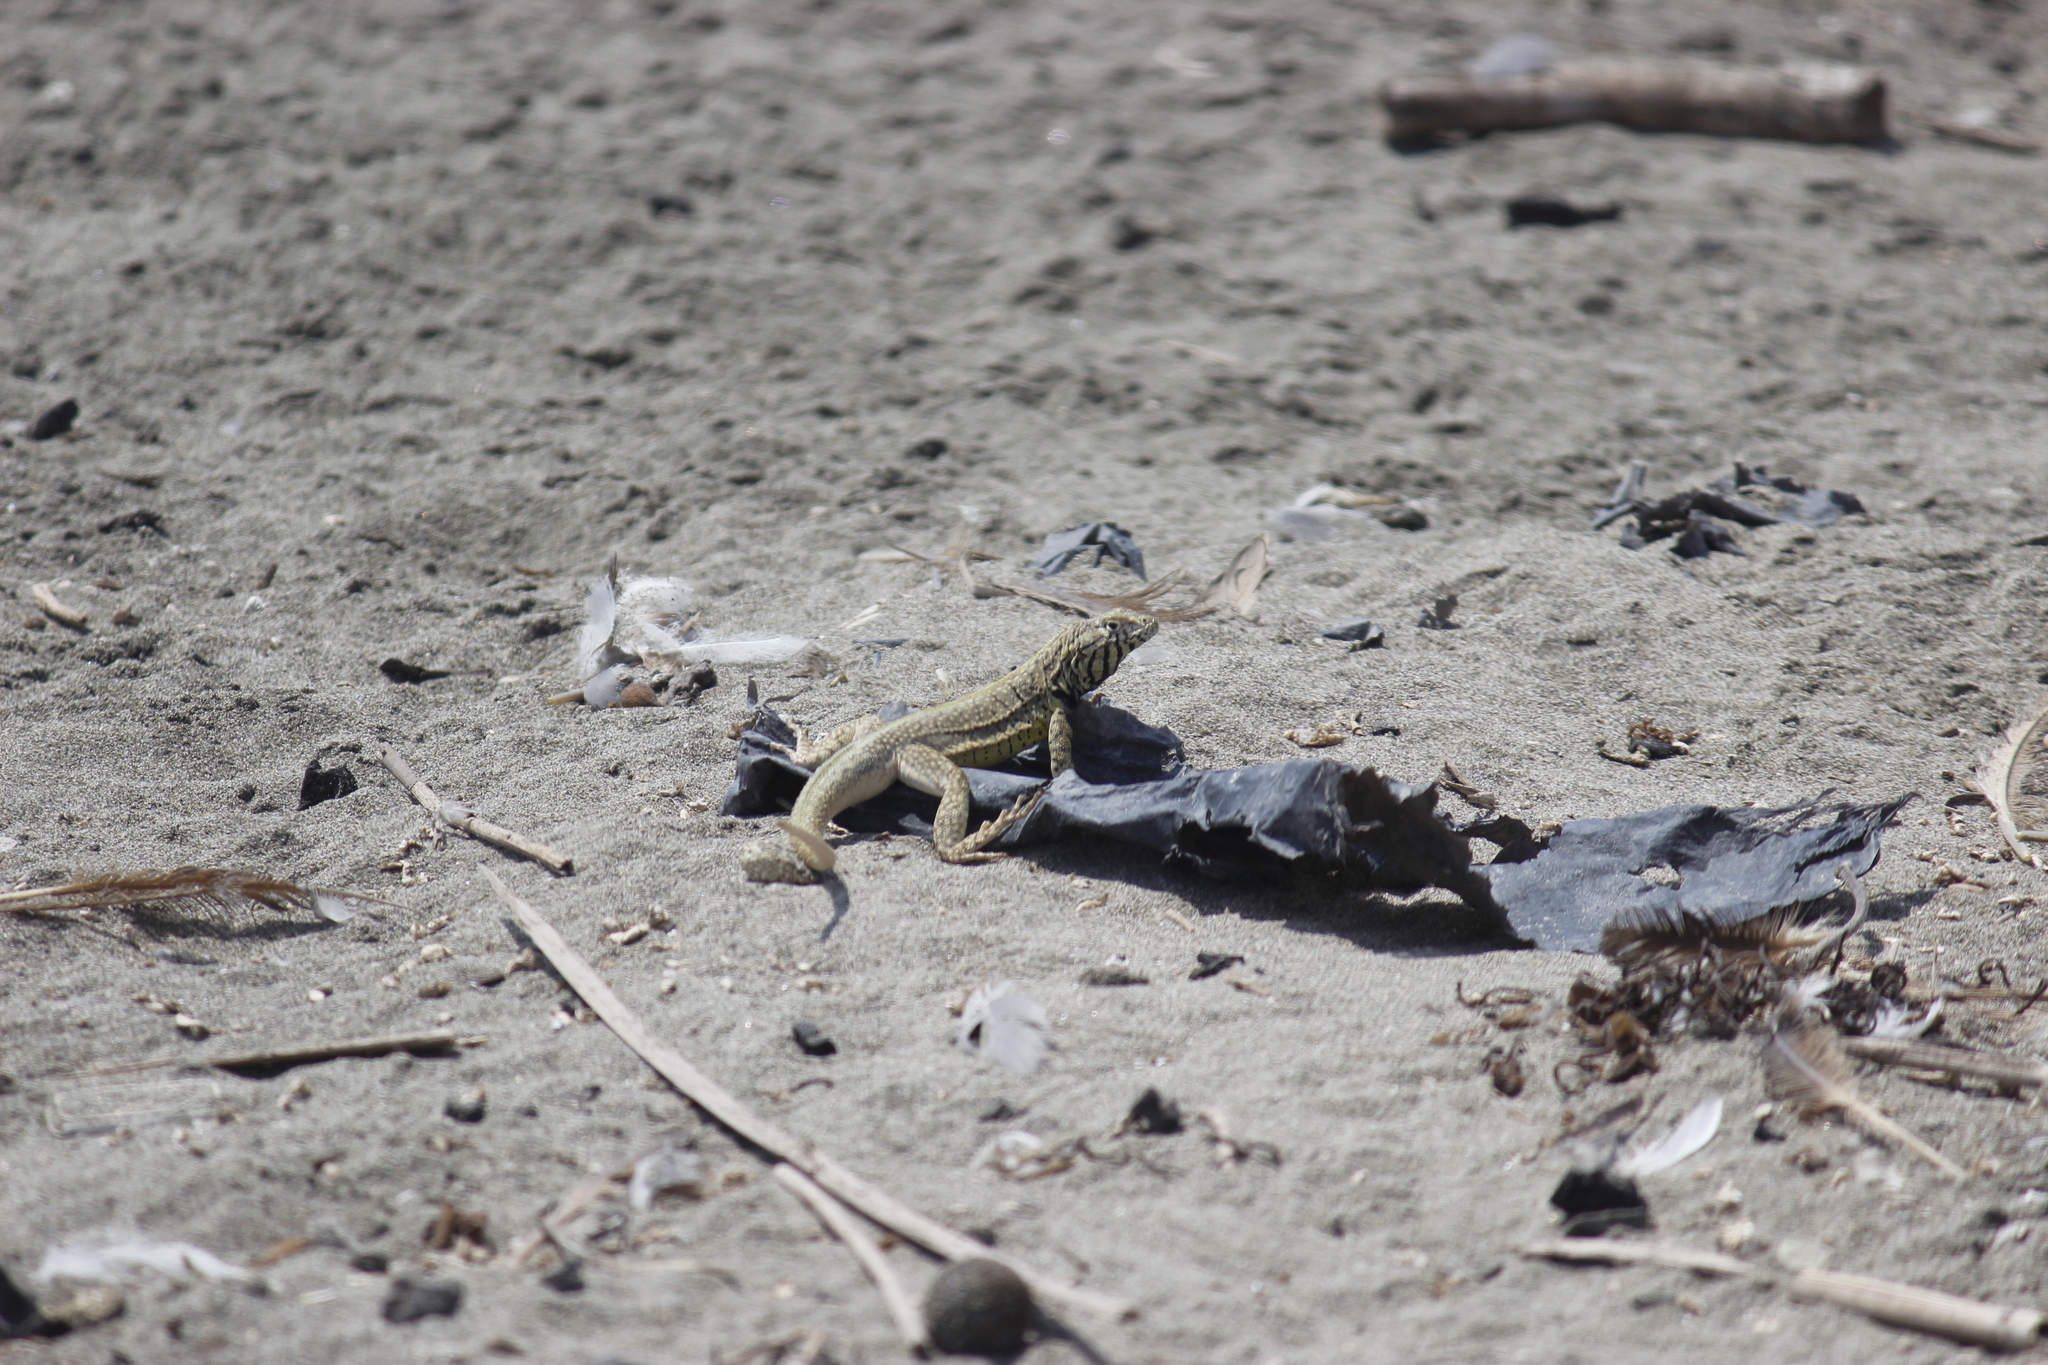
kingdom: Animalia
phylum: Chordata
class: Squamata
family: Tropiduridae
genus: Microlophus
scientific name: Microlophus peruvianus
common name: Peru pacific iguana
